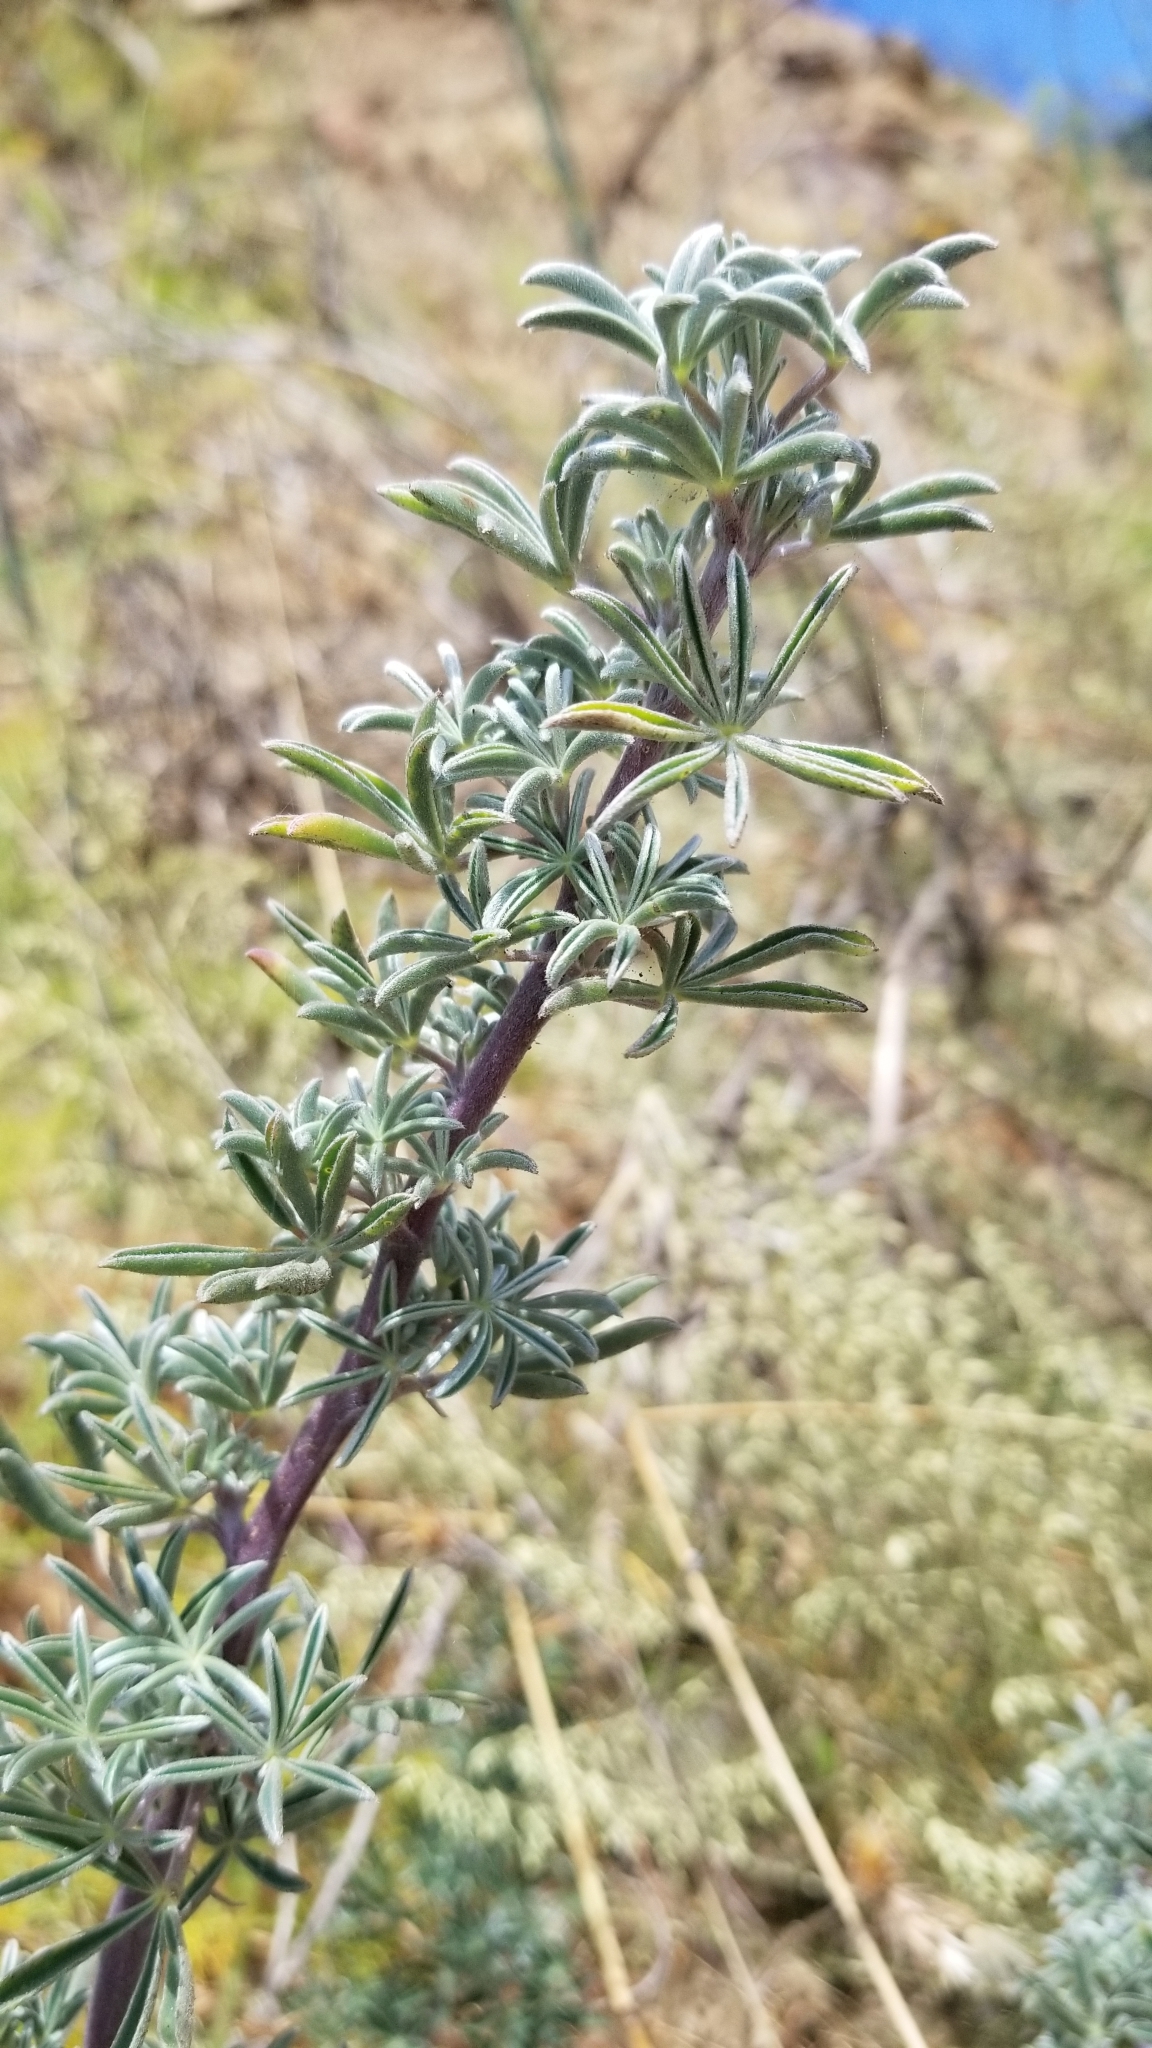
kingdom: Plantae
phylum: Tracheophyta
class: Magnoliopsida
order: Fabales
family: Fabaceae
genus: Lupinus
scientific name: Lupinus albifrons
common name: Foothill lupine
